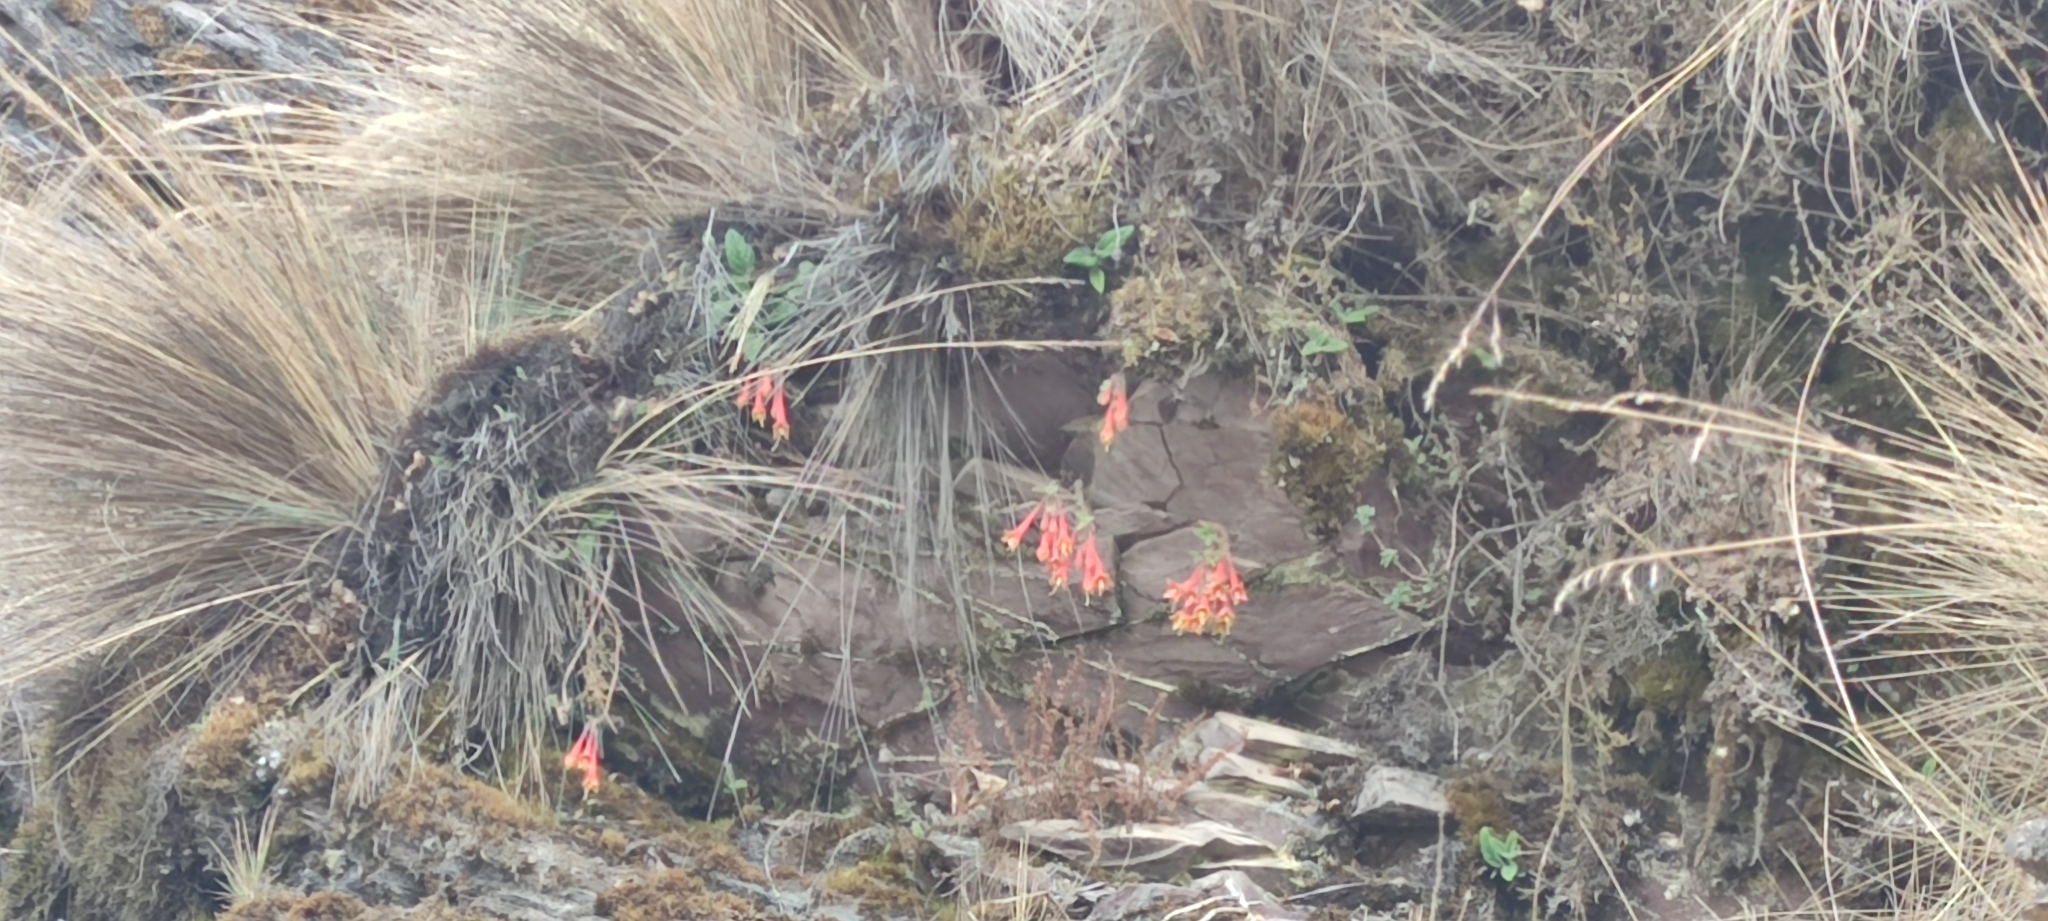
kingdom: Plantae
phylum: Tracheophyta
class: Magnoliopsida
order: Myrtales
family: Onagraceae
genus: Fuchsia
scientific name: Fuchsia apetala
